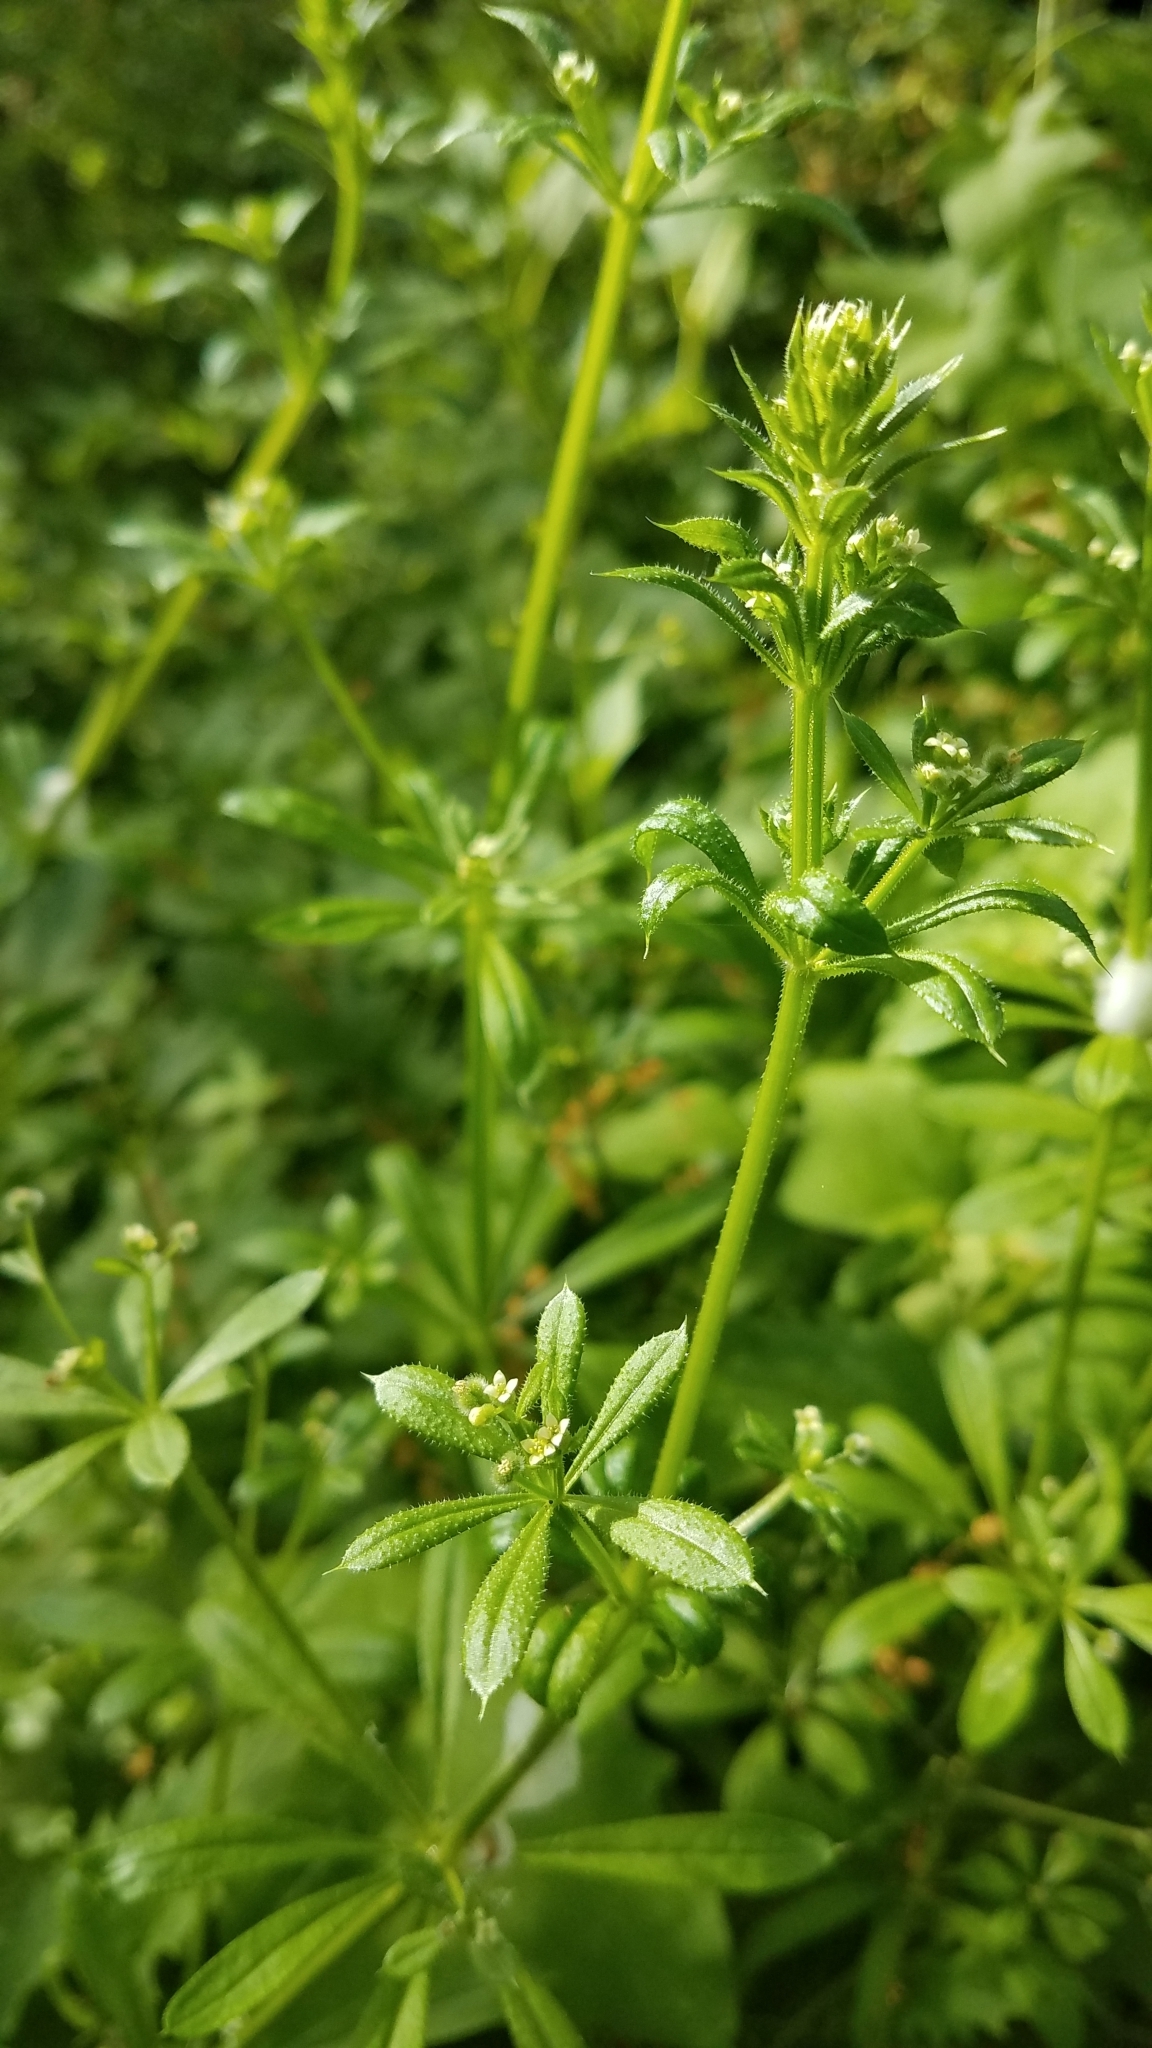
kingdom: Plantae
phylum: Tracheophyta
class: Magnoliopsida
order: Gentianales
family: Rubiaceae
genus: Galium
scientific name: Galium aparine
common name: Cleavers
